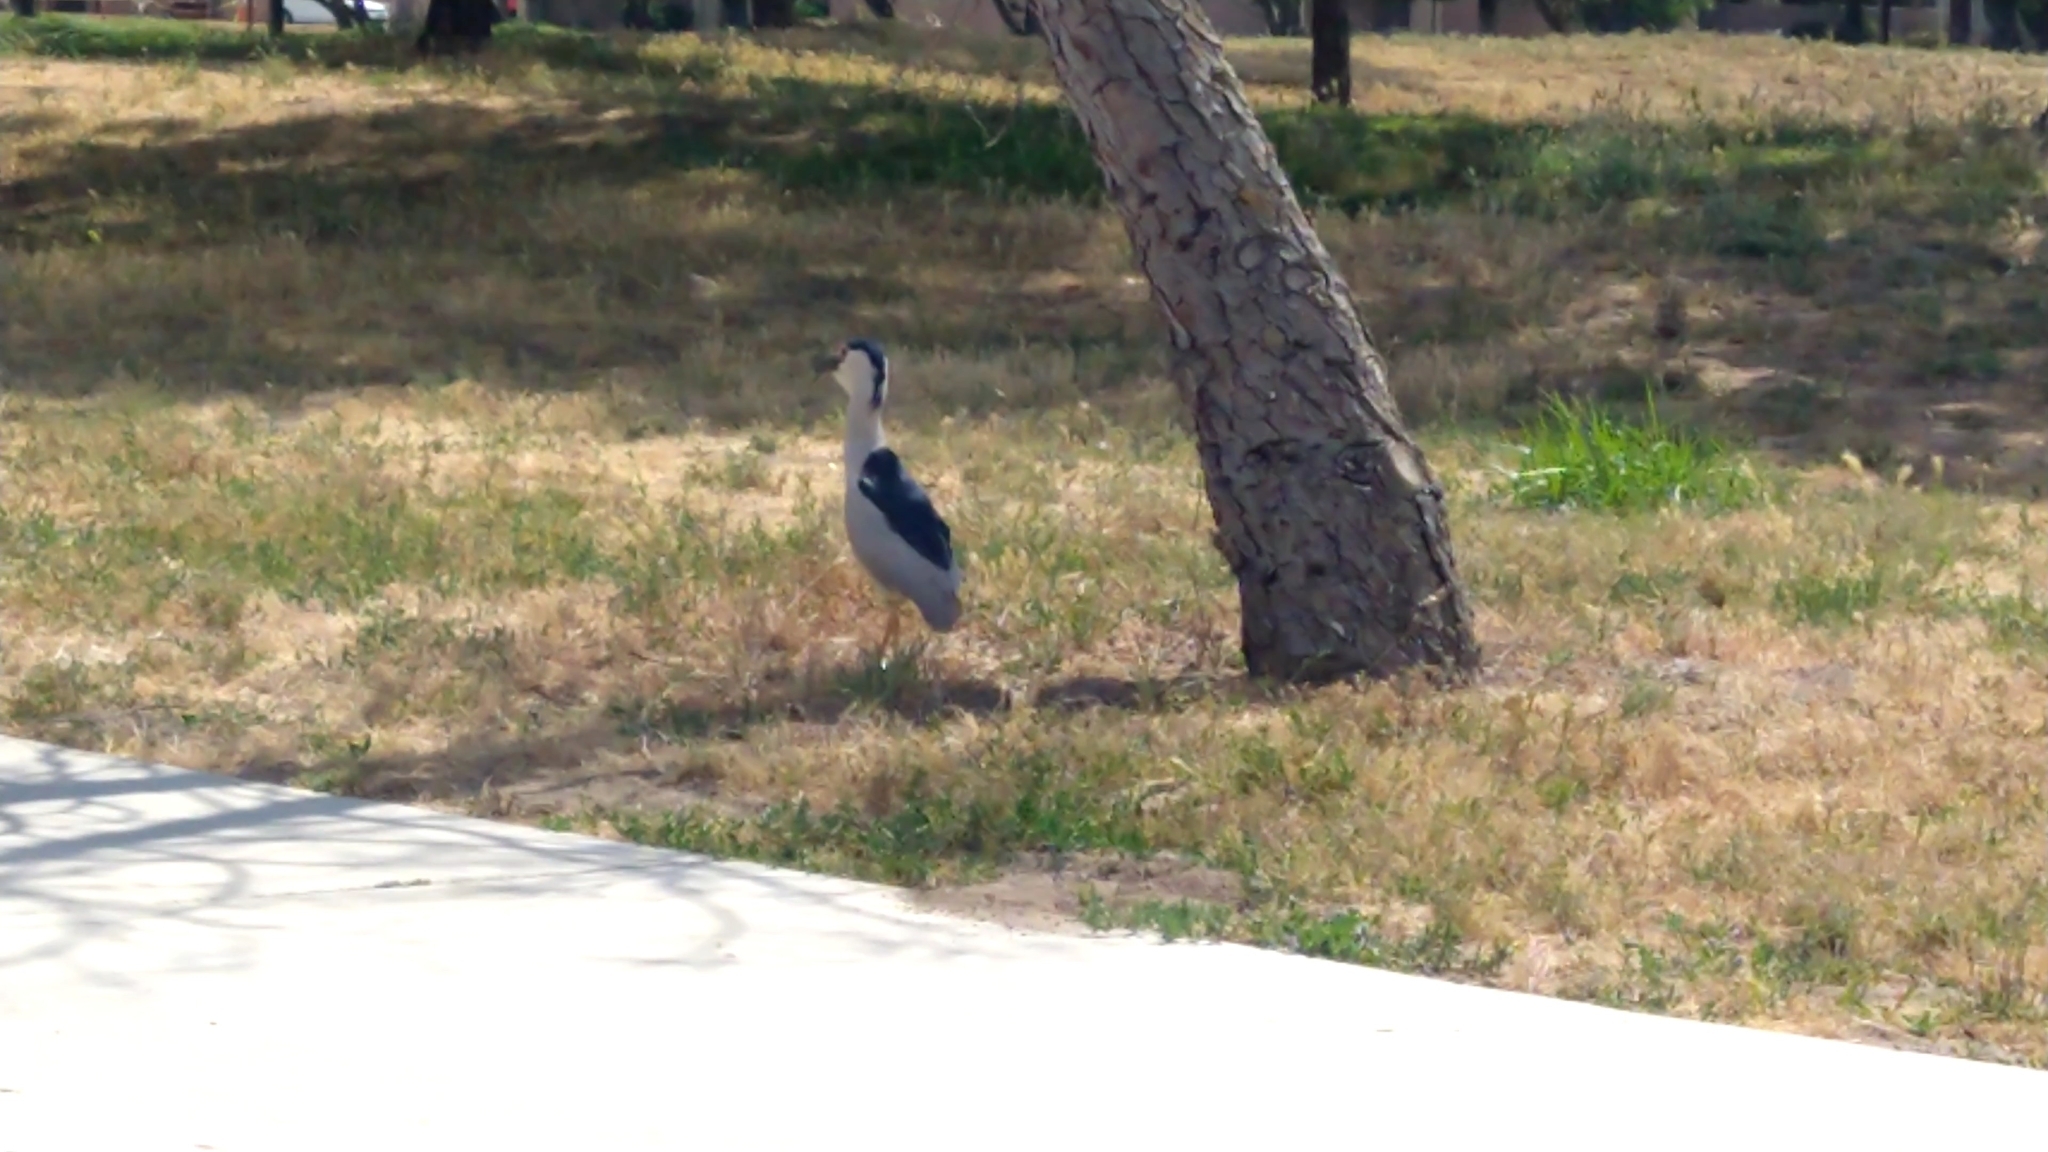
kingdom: Animalia
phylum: Chordata
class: Aves
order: Pelecaniformes
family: Ardeidae
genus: Nycticorax
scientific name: Nycticorax nycticorax
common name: Black-crowned night heron
